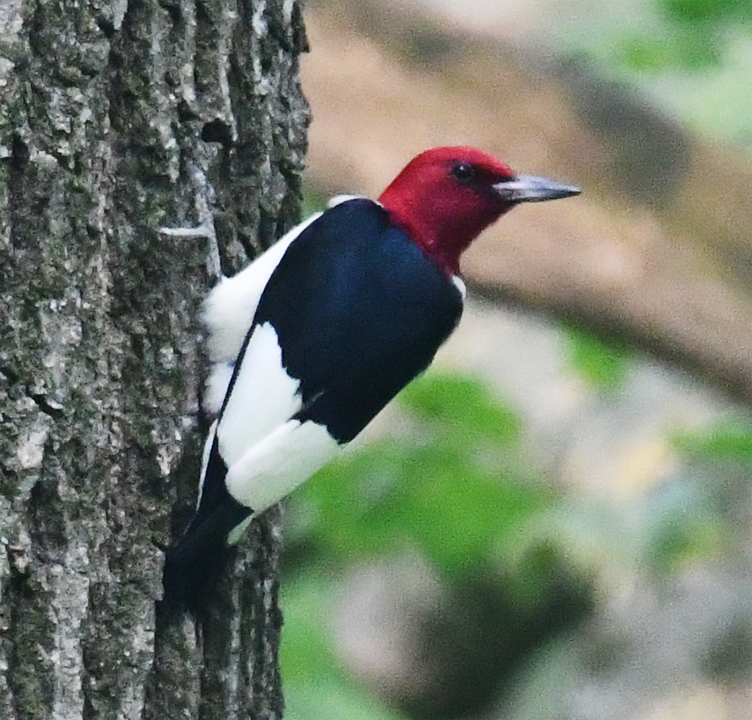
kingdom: Animalia
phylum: Chordata
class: Aves
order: Piciformes
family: Picidae
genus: Melanerpes
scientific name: Melanerpes erythrocephalus
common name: Red-headed woodpecker
